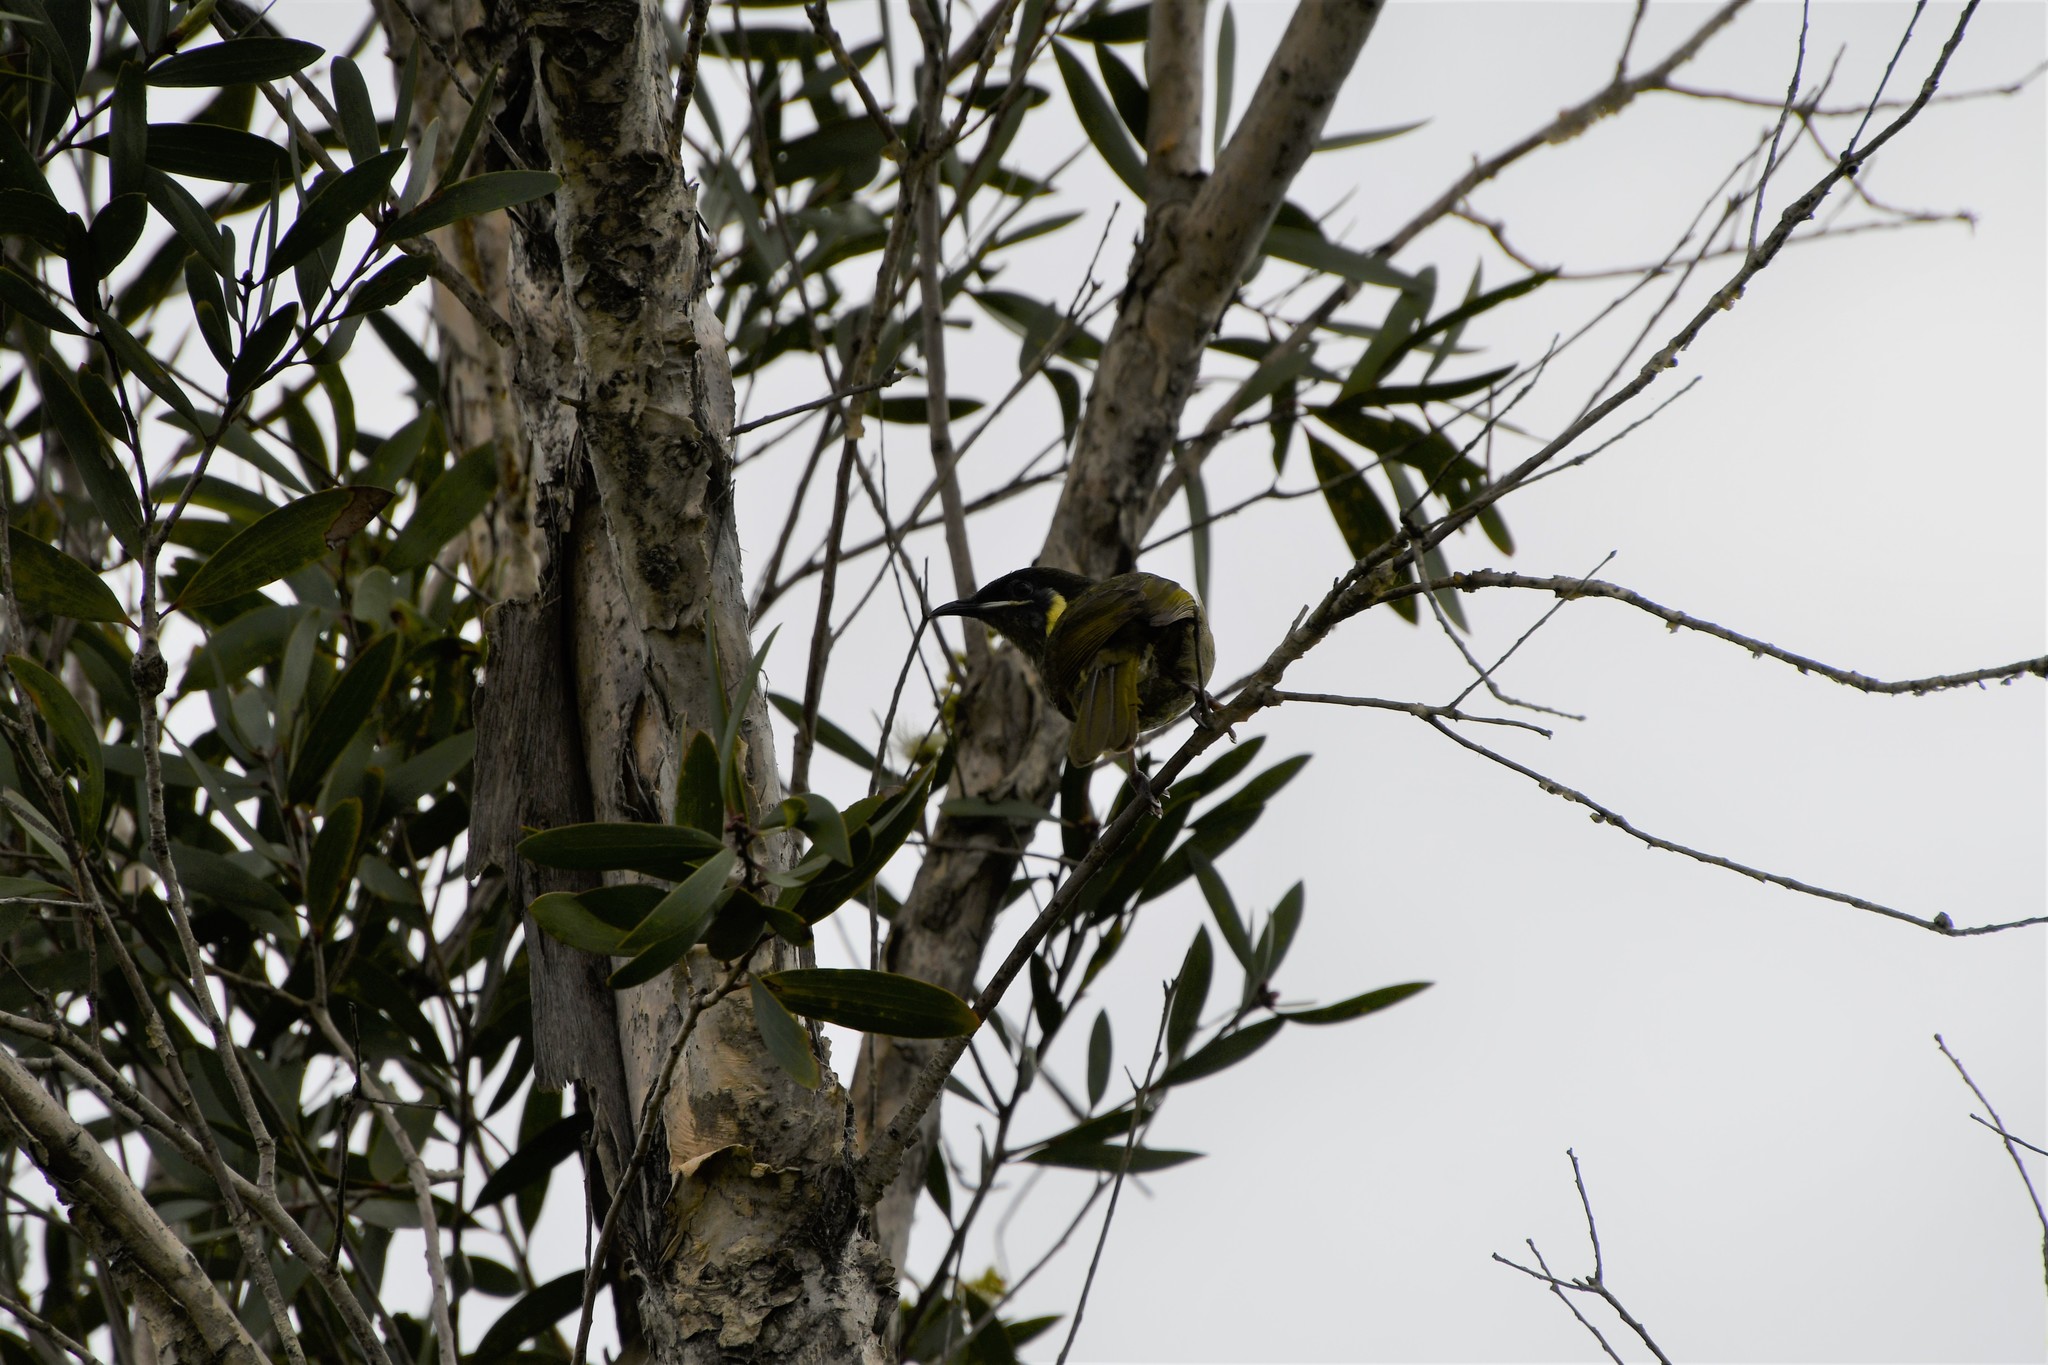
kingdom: Animalia
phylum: Chordata
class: Aves
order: Passeriformes
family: Meliphagidae
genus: Meliphaga
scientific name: Meliphaga lewinii
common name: Lewin's honeyeater
